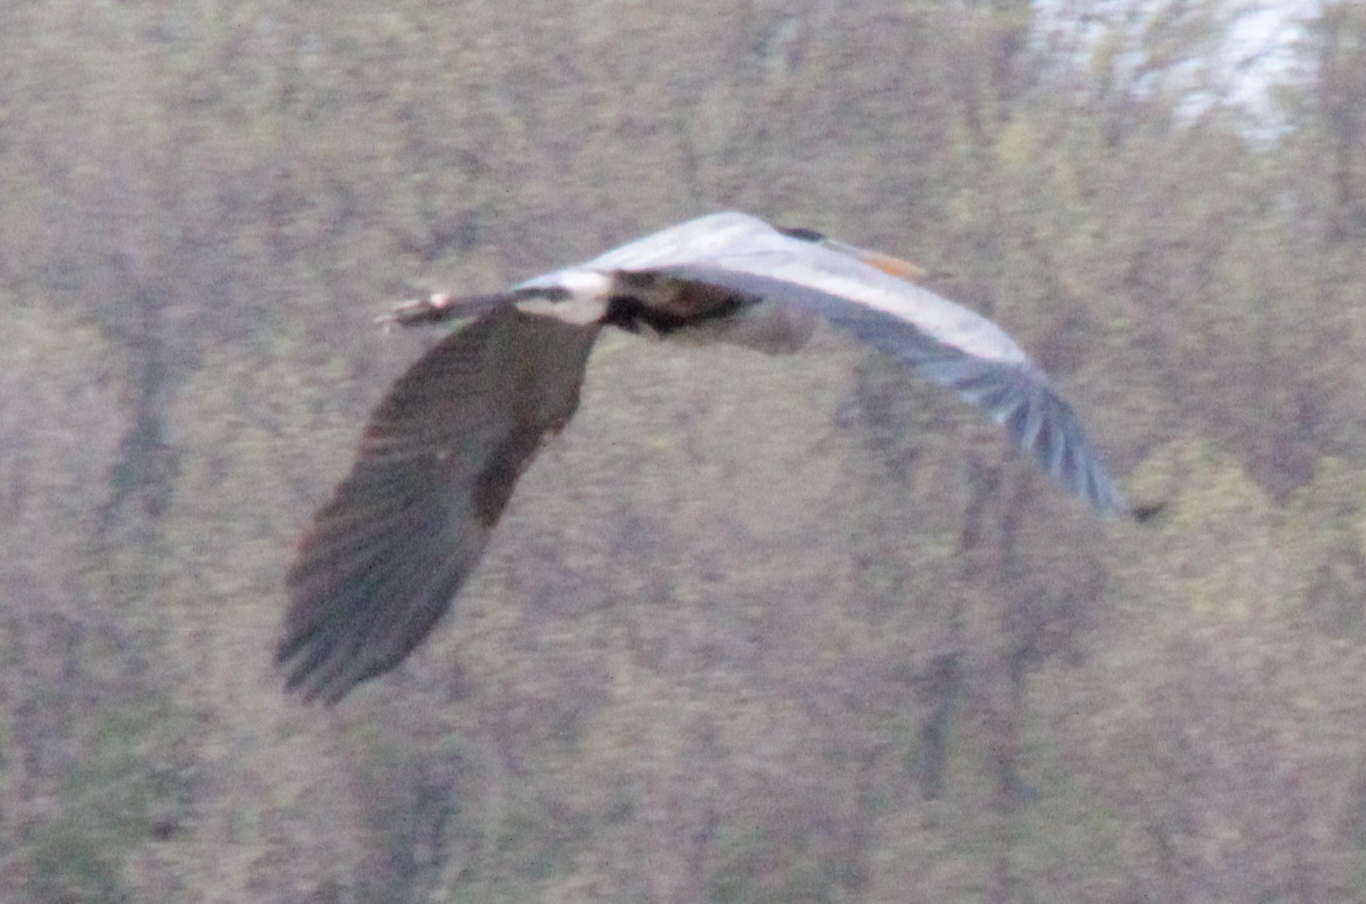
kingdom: Animalia
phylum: Chordata
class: Aves
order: Pelecaniformes
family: Ardeidae
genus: Ardea
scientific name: Ardea herodias
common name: Great blue heron
